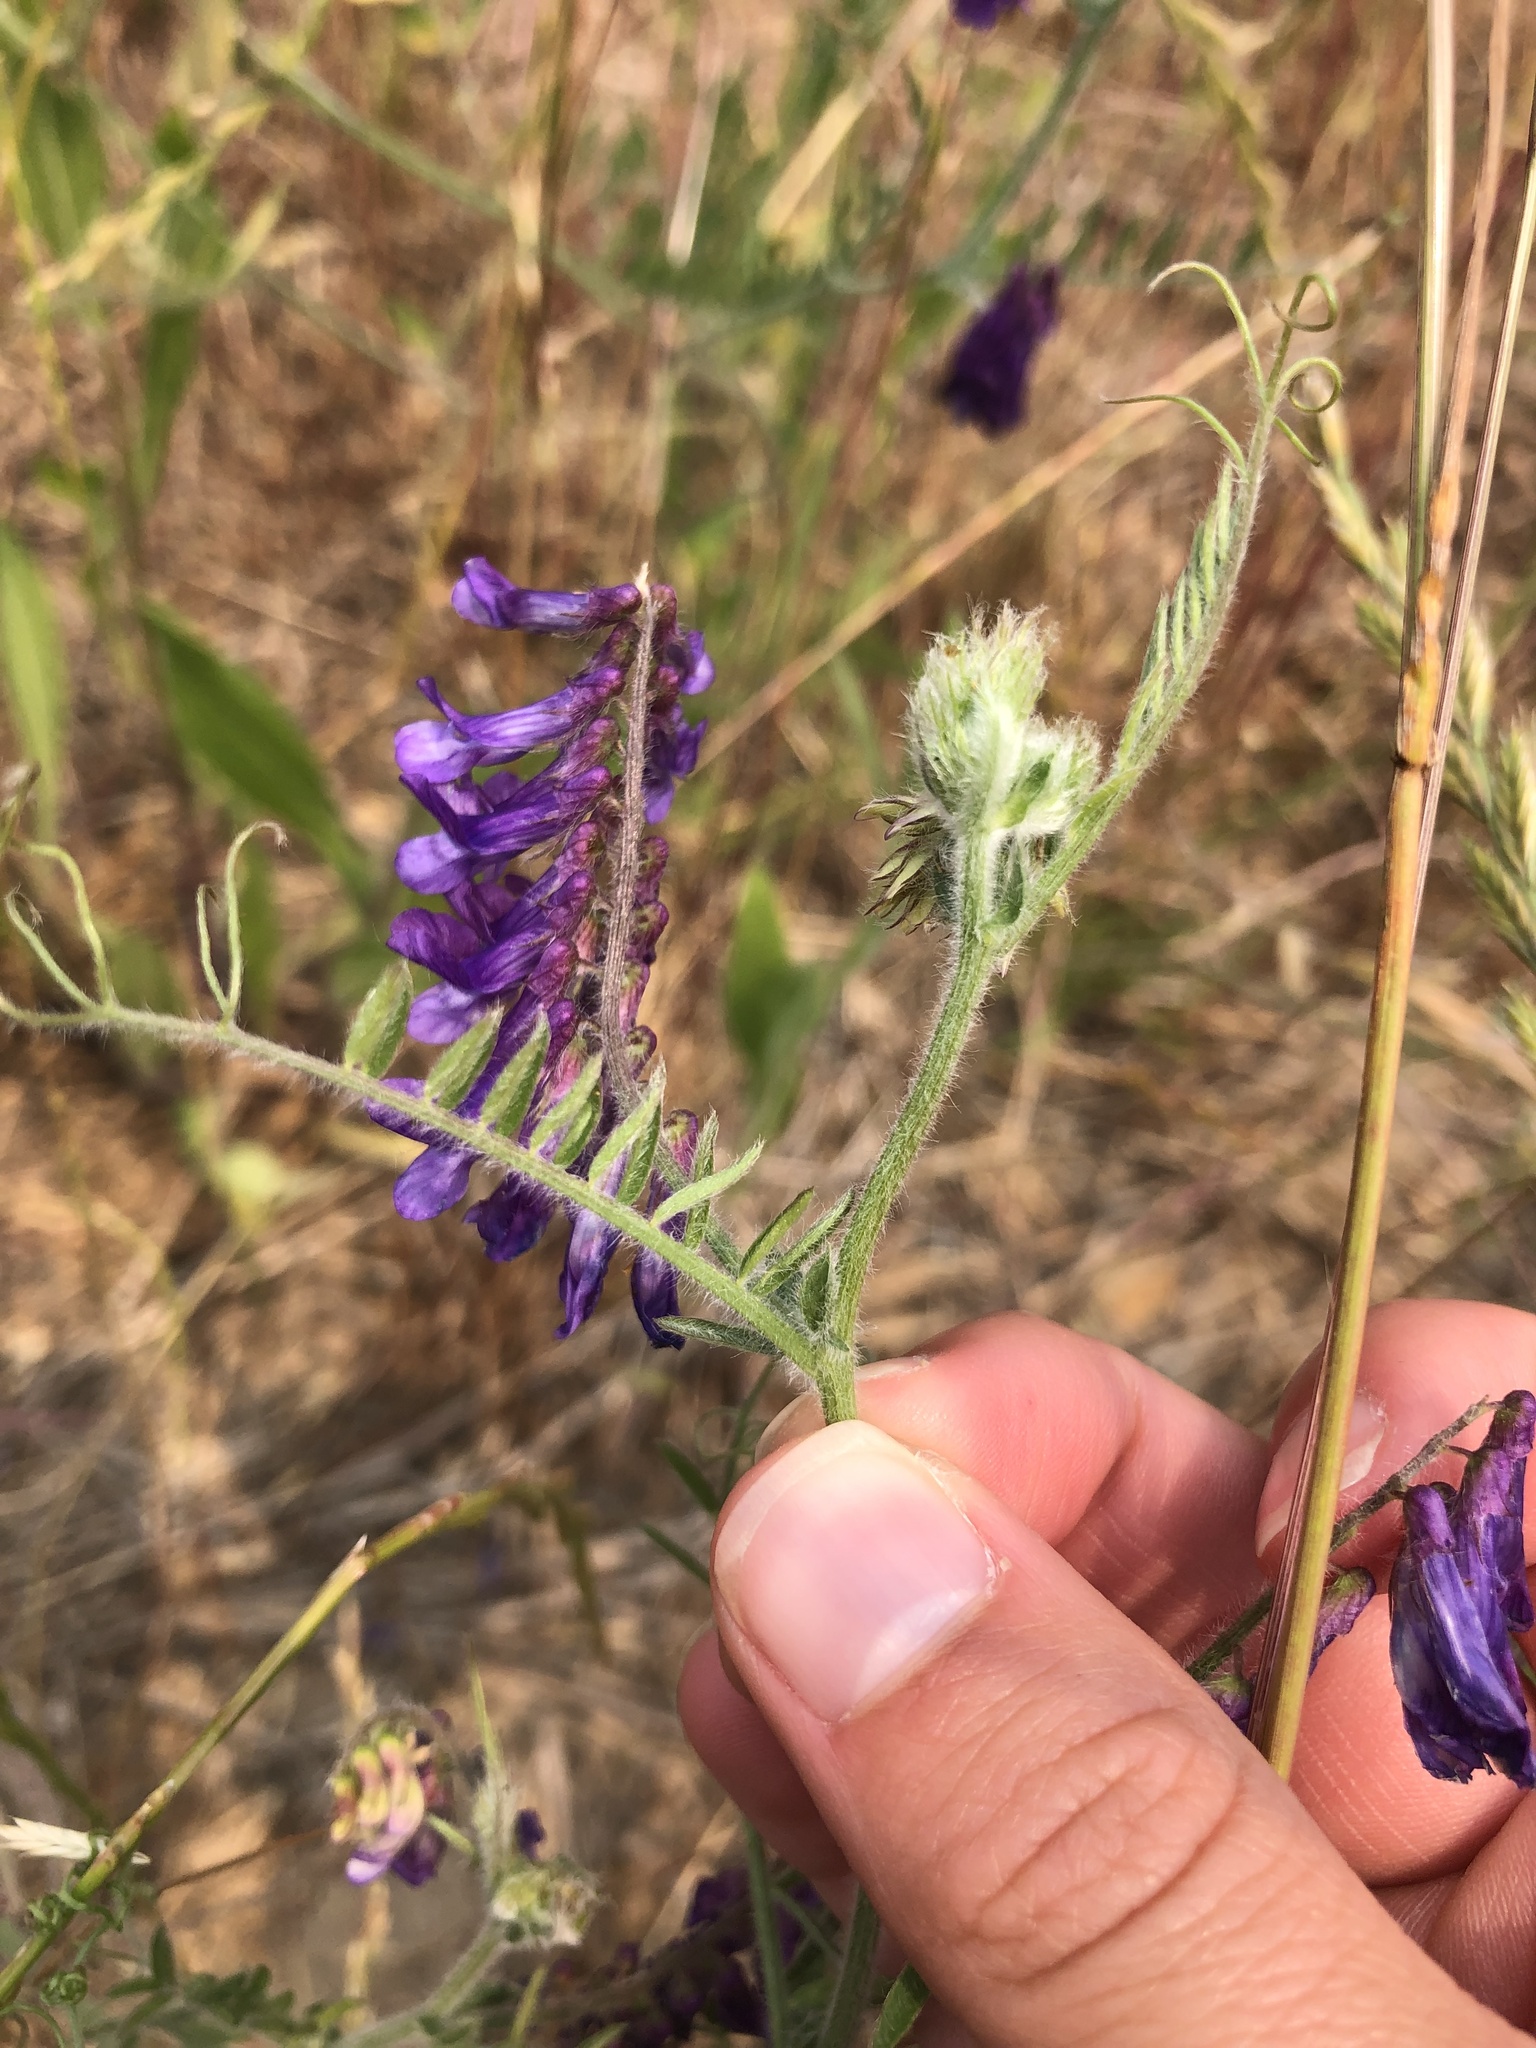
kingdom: Plantae
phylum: Tracheophyta
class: Magnoliopsida
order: Fabales
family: Fabaceae
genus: Vicia
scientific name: Vicia villosa
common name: Fodder vetch
